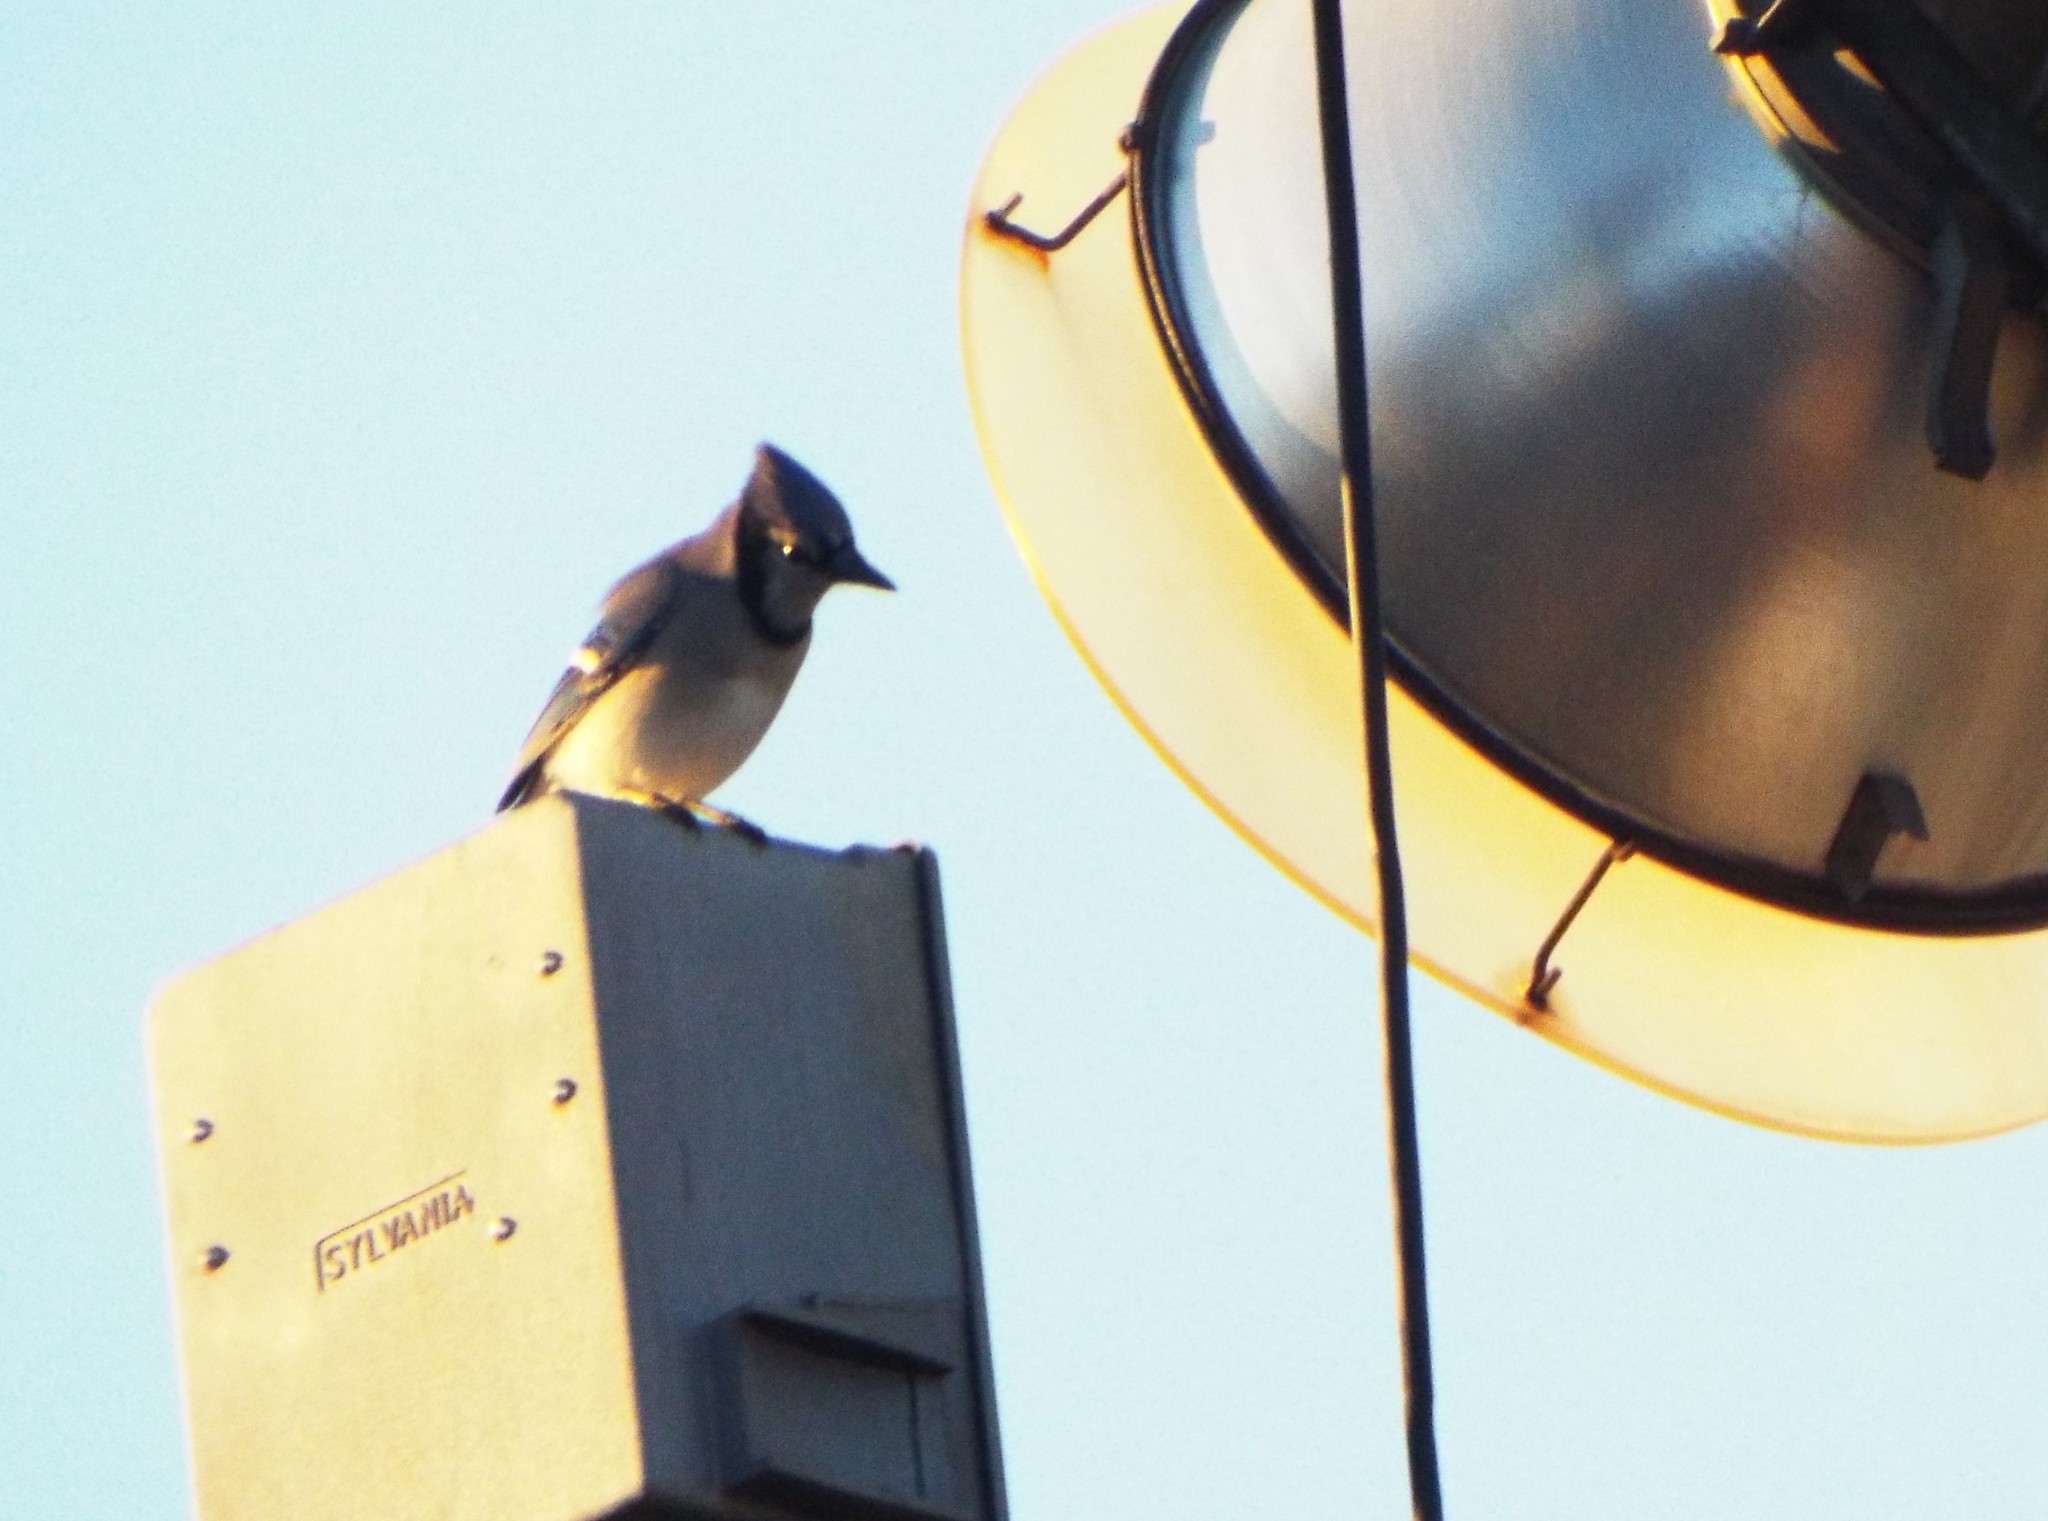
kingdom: Animalia
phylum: Chordata
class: Aves
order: Passeriformes
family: Corvidae
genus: Cyanocitta
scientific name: Cyanocitta cristata
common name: Blue jay
